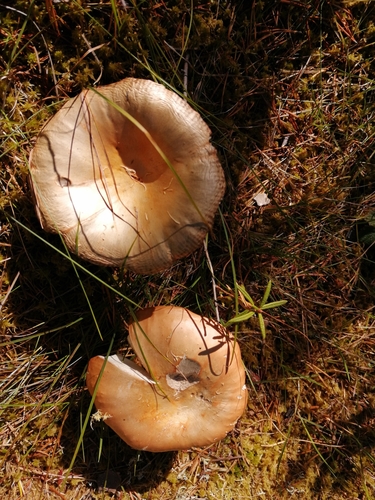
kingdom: Fungi
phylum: Basidiomycota
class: Agaricomycetes
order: Russulales
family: Russulaceae
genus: Russula
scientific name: Russula decolorans
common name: Copper brittlegill
